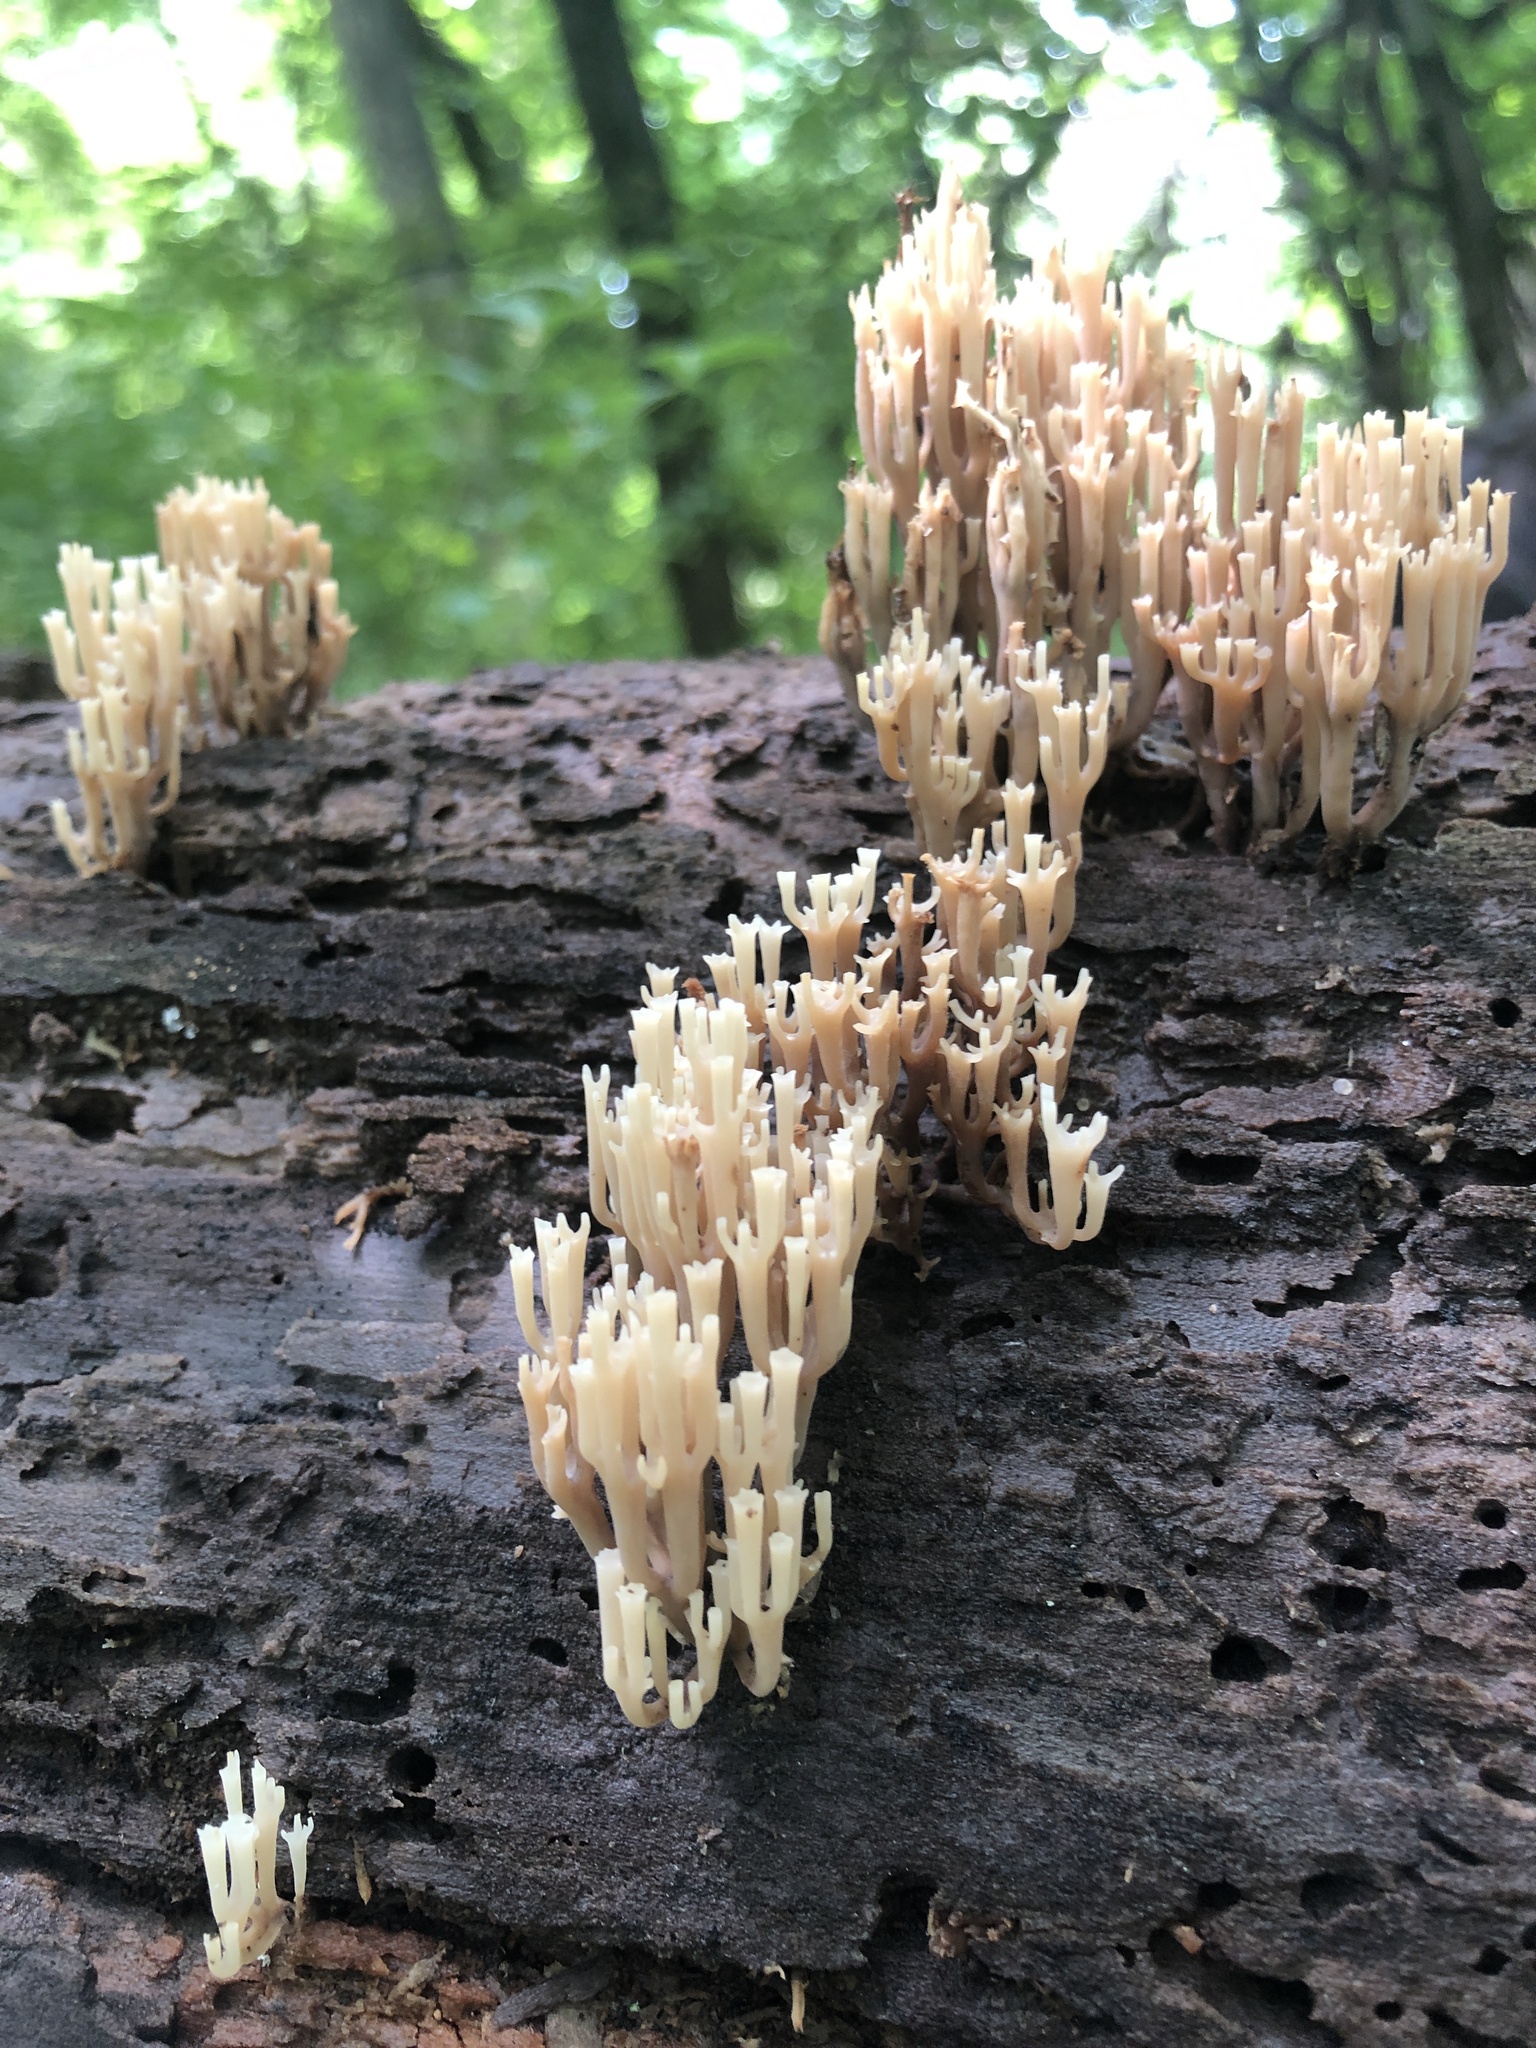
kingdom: Fungi
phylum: Basidiomycota
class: Agaricomycetes
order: Russulales
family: Auriscalpiaceae
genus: Artomyces
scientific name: Artomyces pyxidatus
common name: Crown-tipped coral fungus
